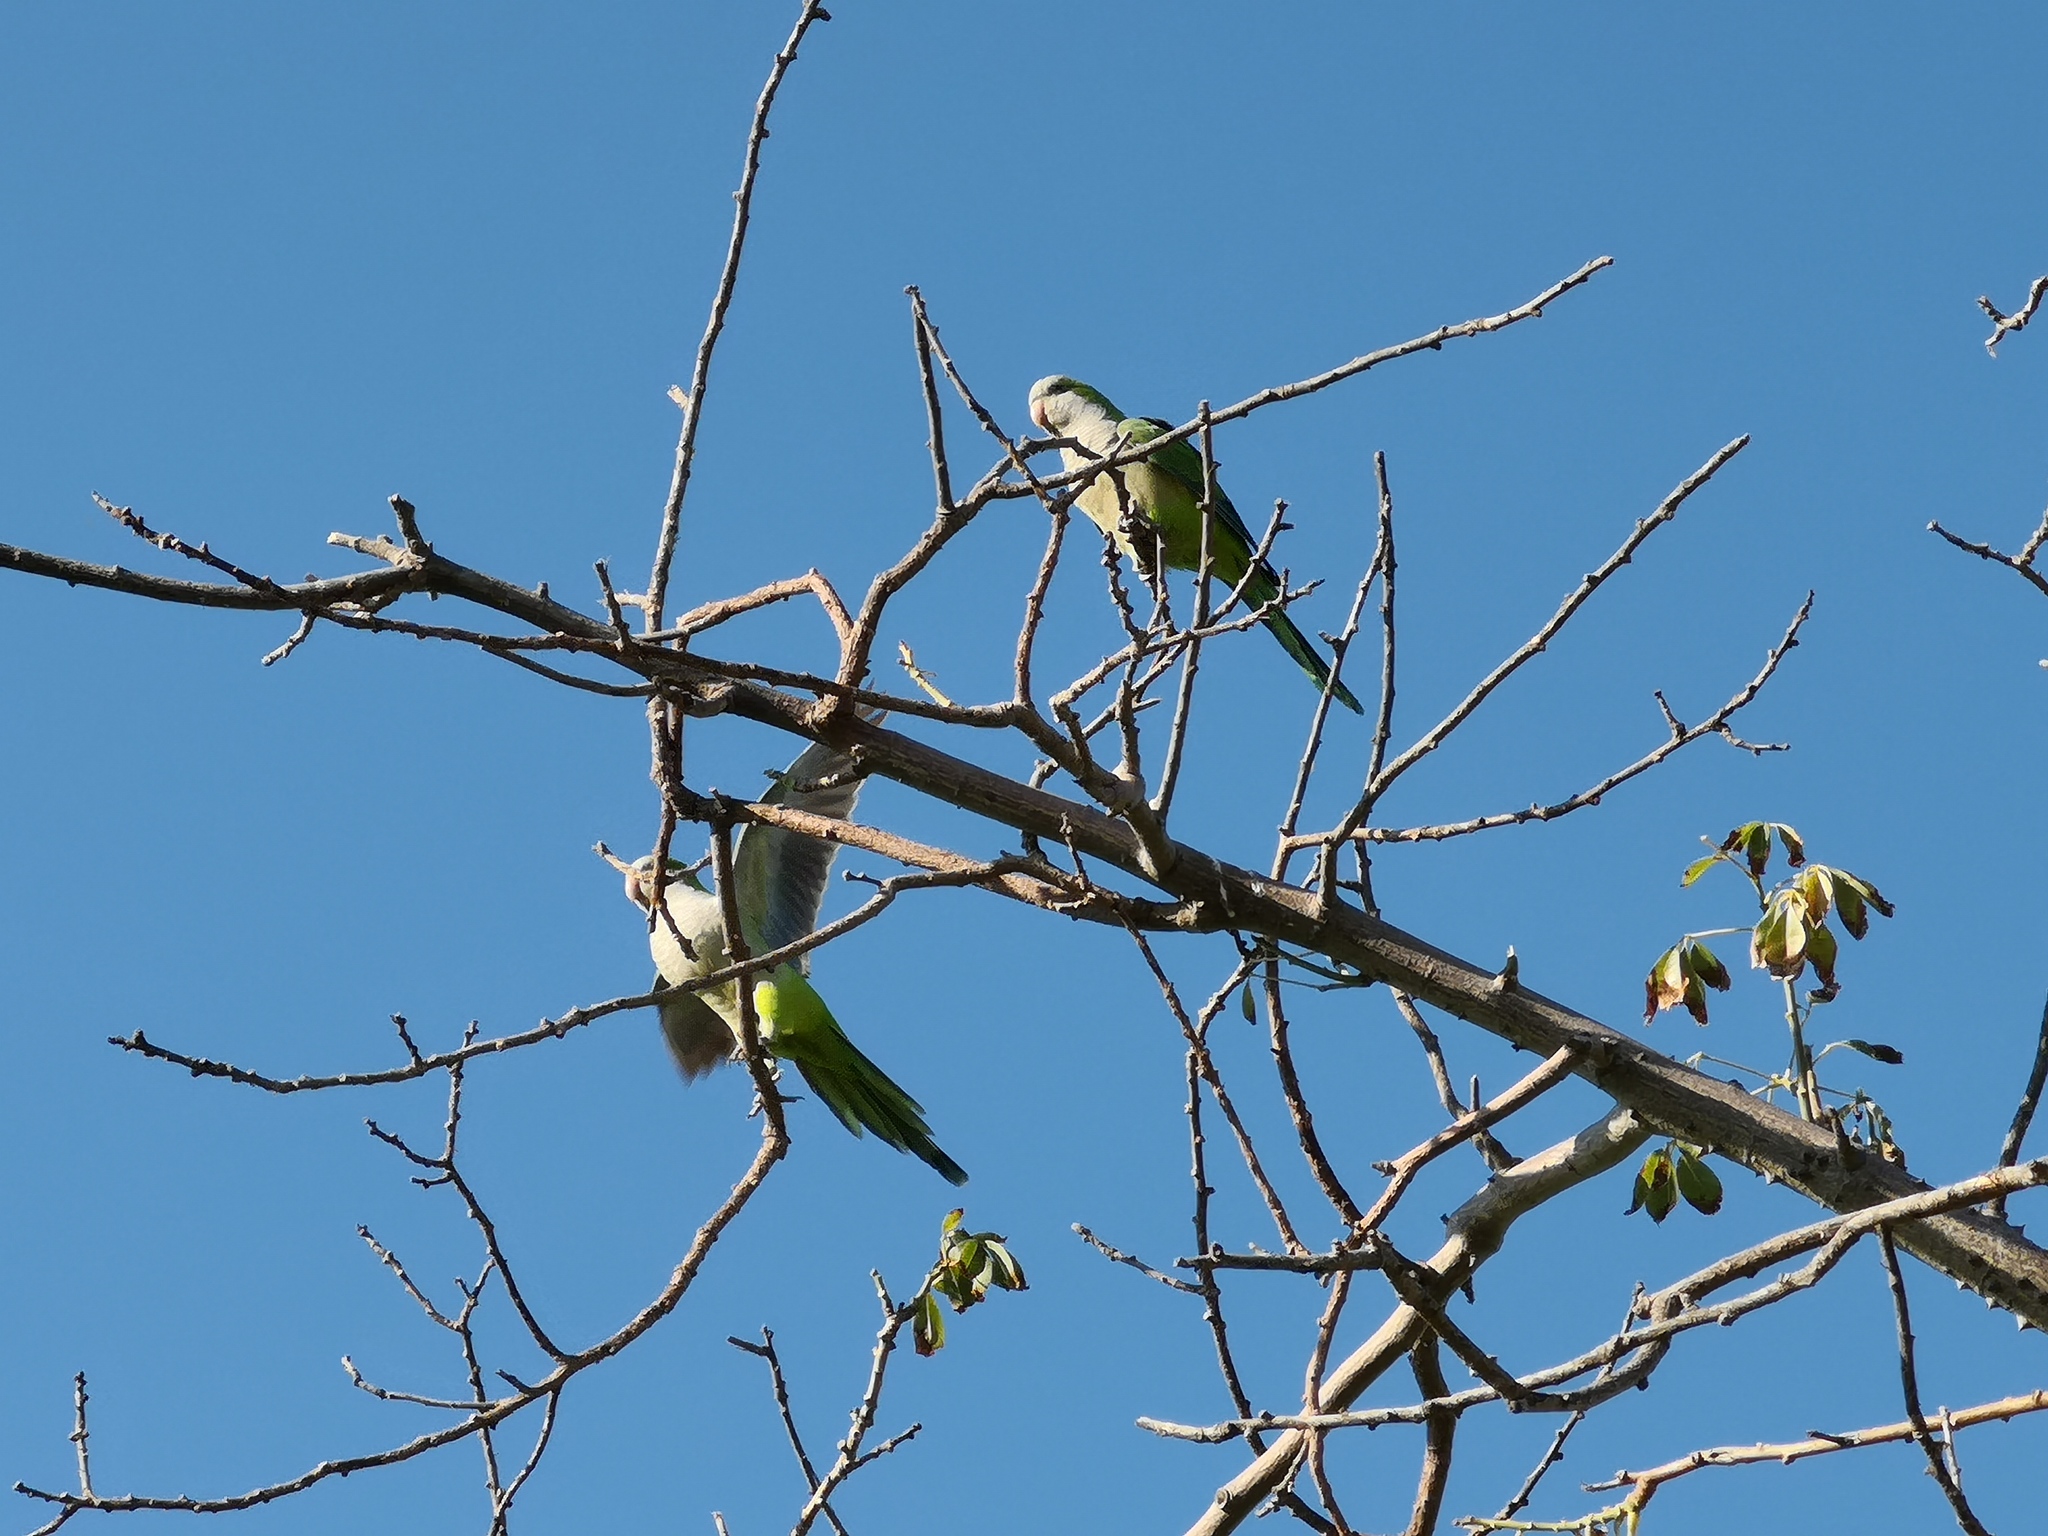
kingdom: Animalia
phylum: Chordata
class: Aves
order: Psittaciformes
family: Psittacidae
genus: Myiopsitta
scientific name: Myiopsitta monachus
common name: Monk parakeet
